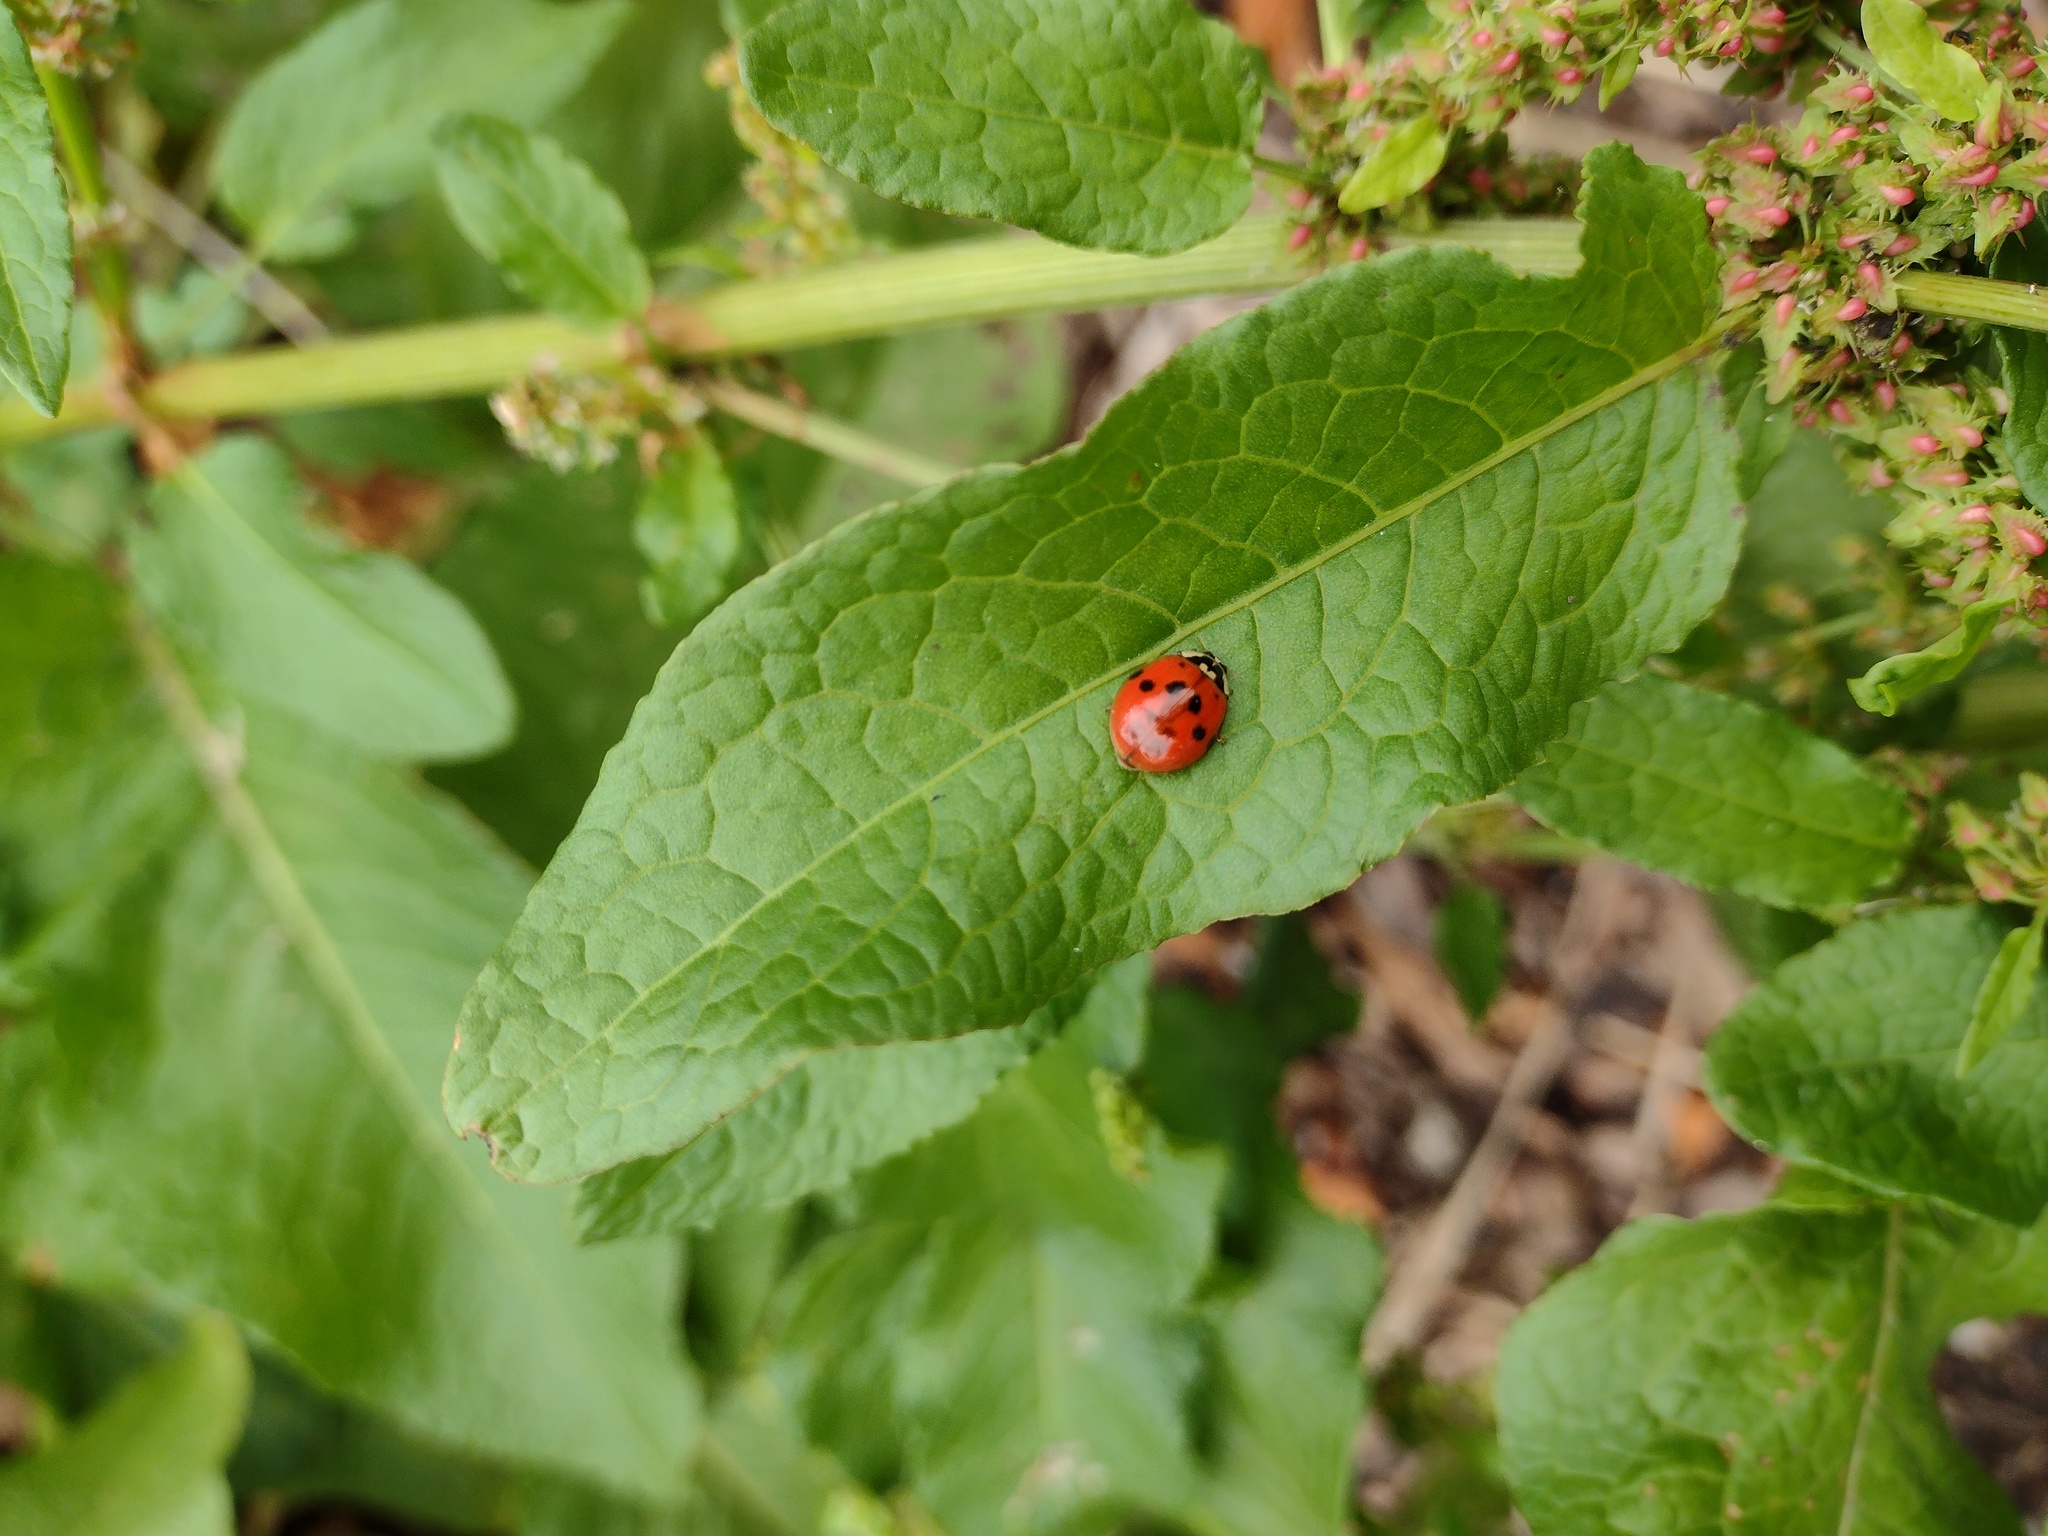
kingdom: Animalia
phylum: Arthropoda
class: Insecta
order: Coleoptera
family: Coccinellidae
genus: Harmonia
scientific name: Harmonia axyridis
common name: Harlequin ladybird
